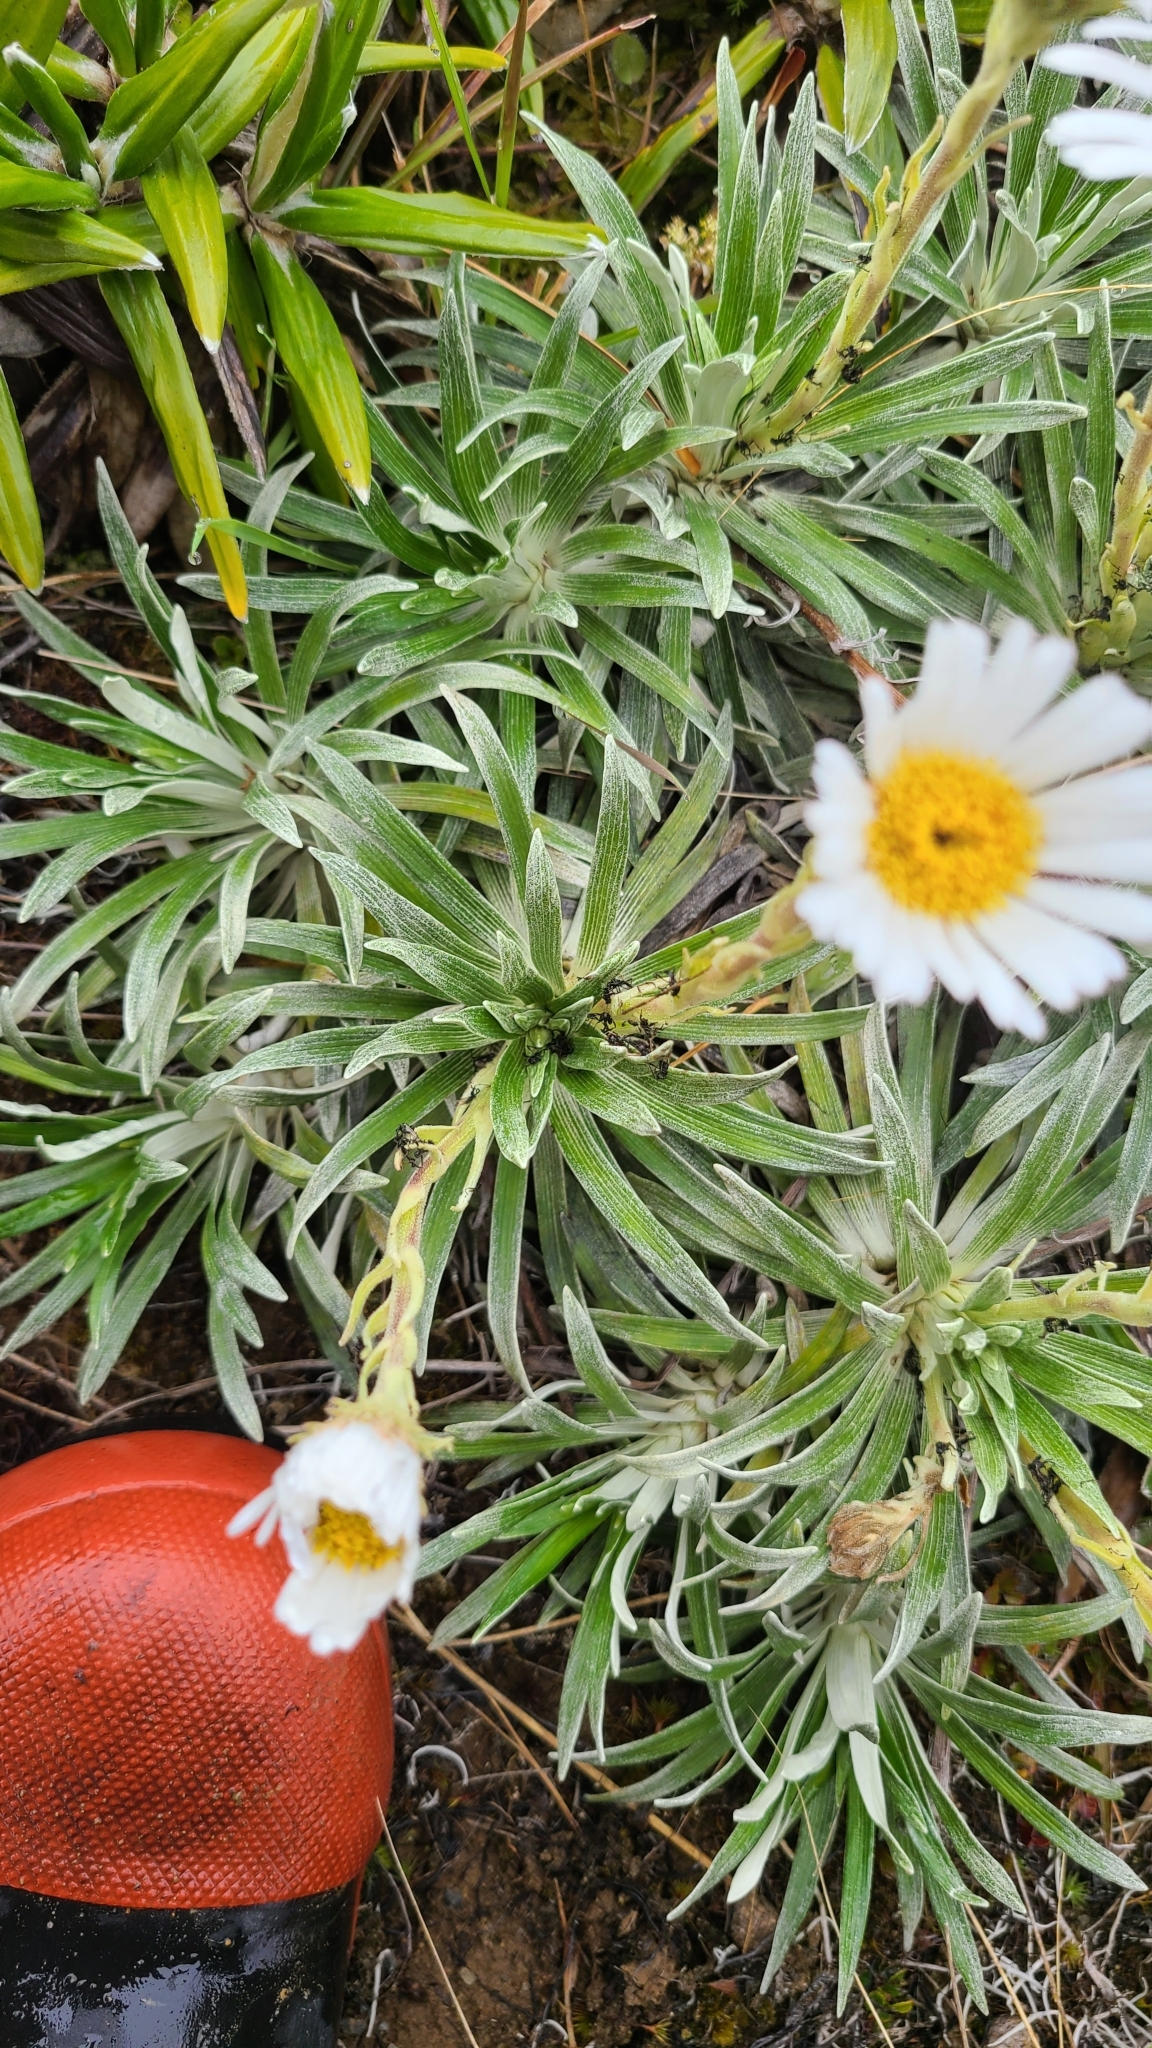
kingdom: Plantae
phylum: Tracheophyta
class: Magnoliopsida
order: Asterales
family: Asteraceae
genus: Celmisia
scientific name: Celmisia viscosa
